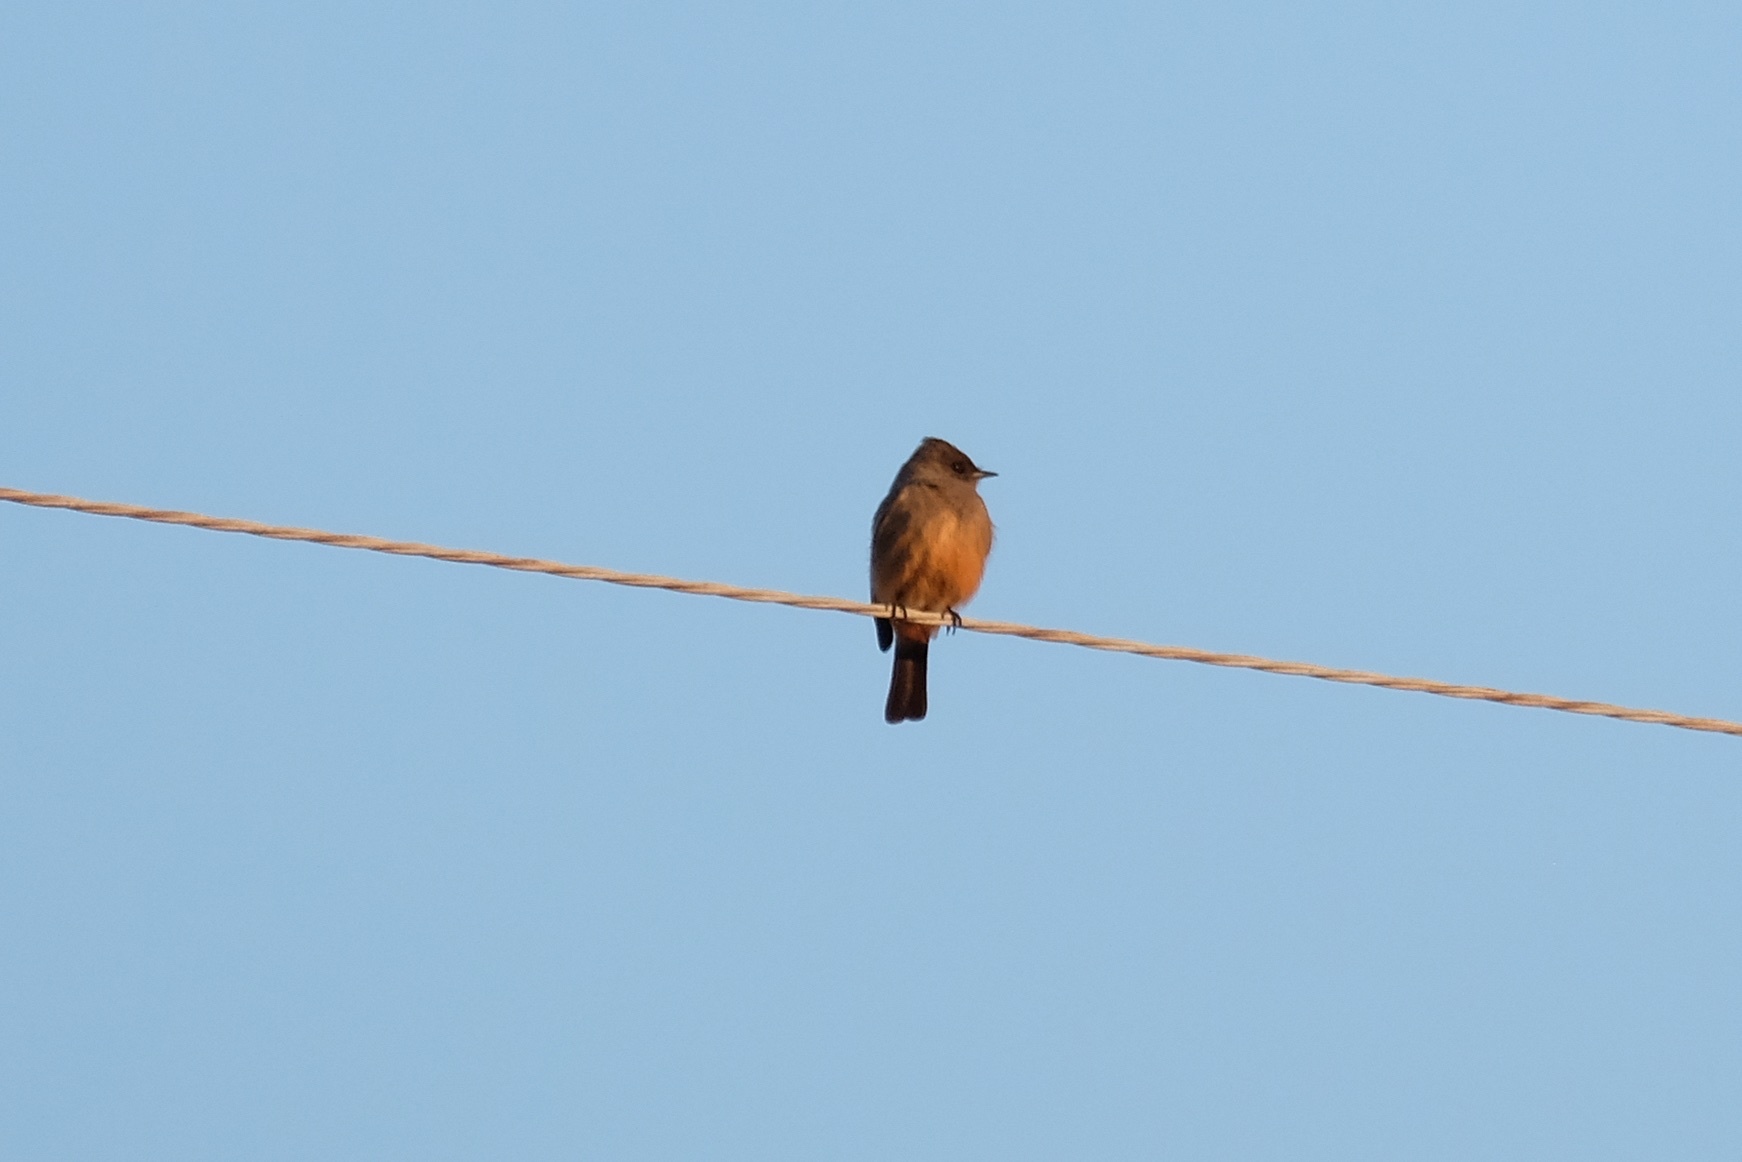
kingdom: Animalia
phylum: Chordata
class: Aves
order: Passeriformes
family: Tyrannidae
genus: Sayornis
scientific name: Sayornis saya
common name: Say's phoebe
